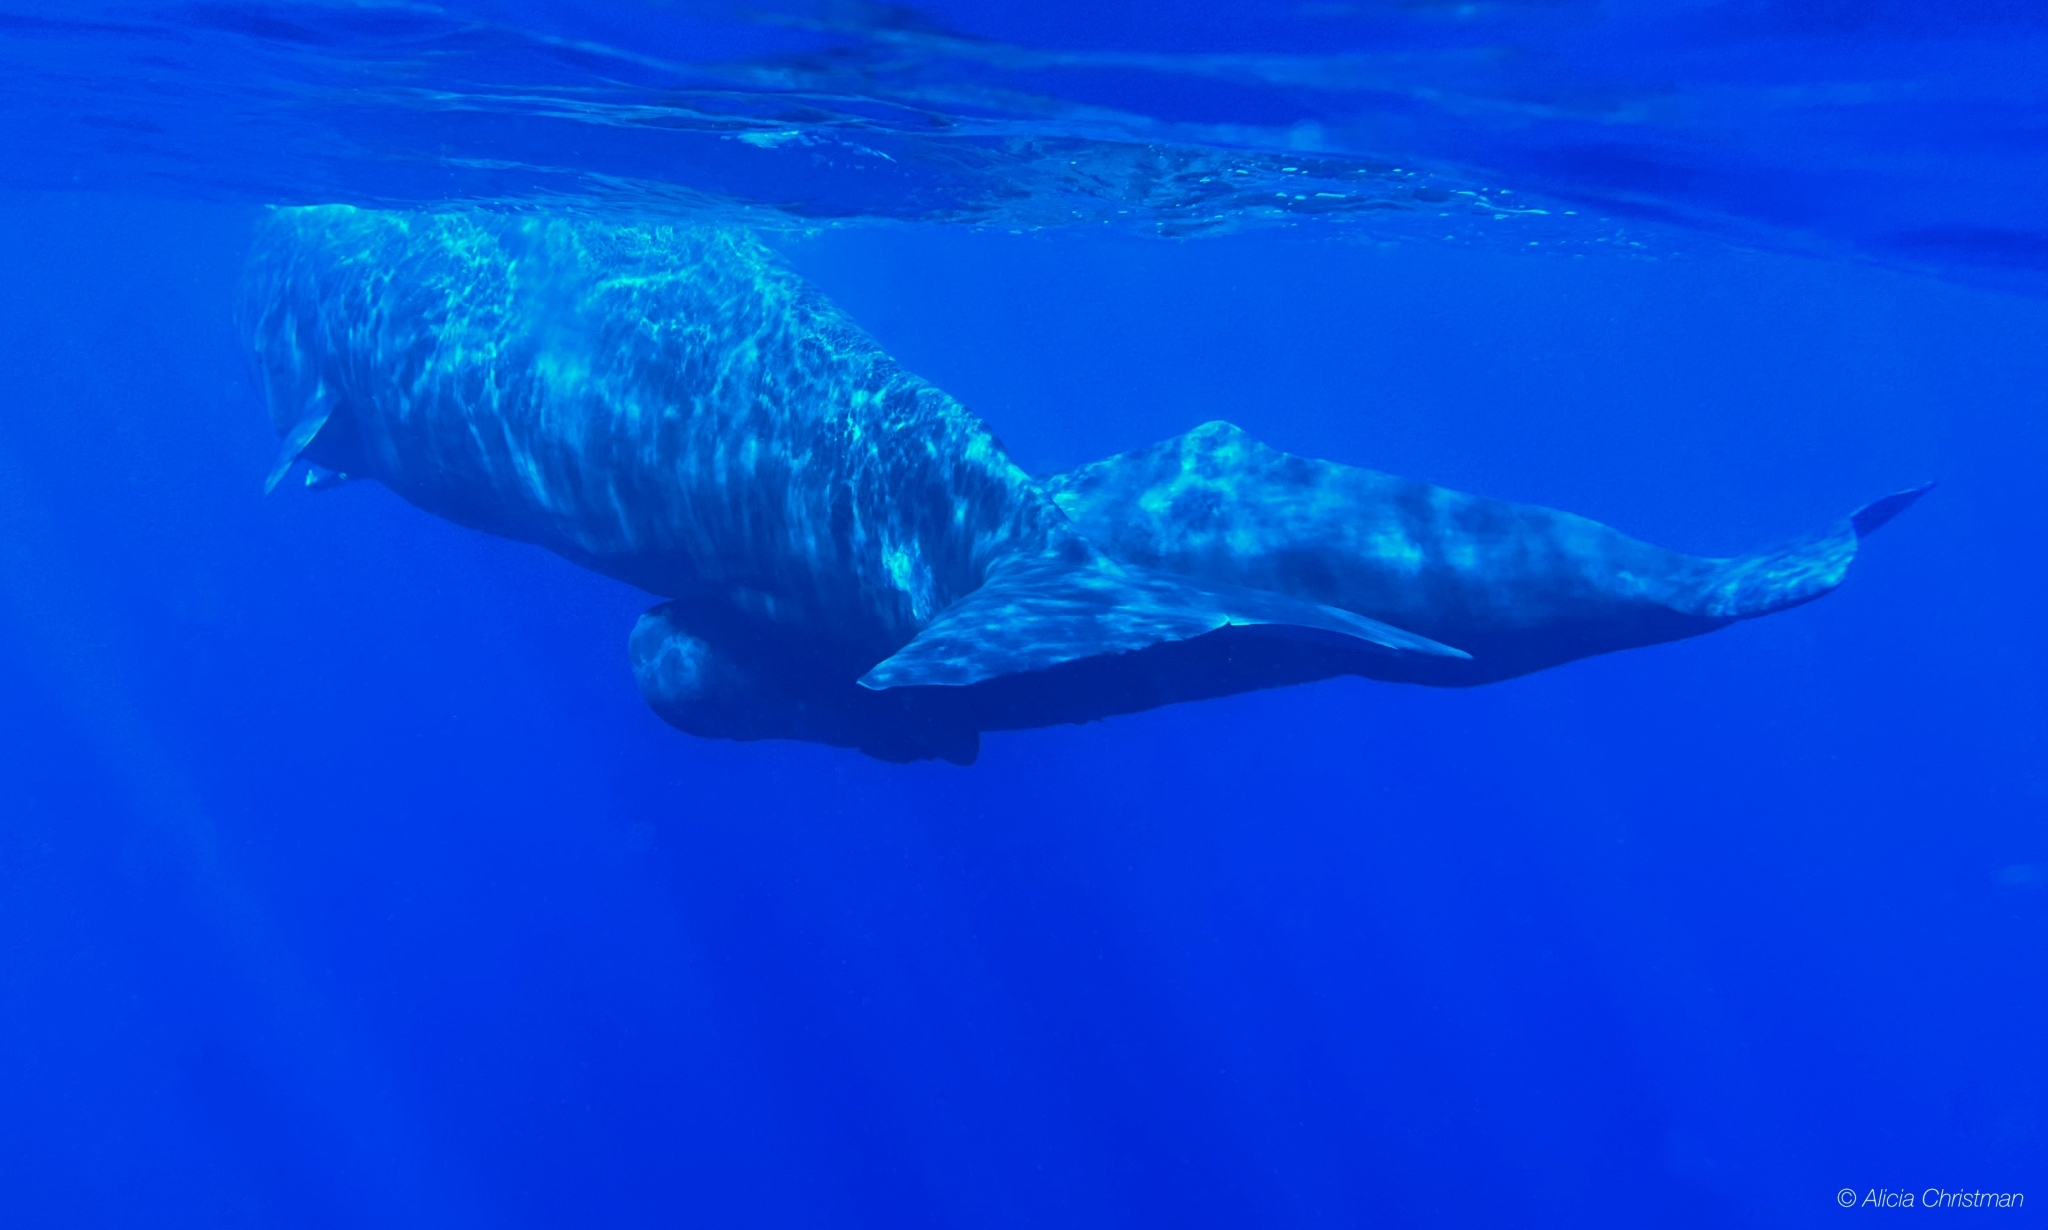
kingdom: Animalia
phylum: Chordata
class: Mammalia
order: Cetacea
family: Physeteridae
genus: Physeter
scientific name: Physeter macrocephalus
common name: Sperm whale
